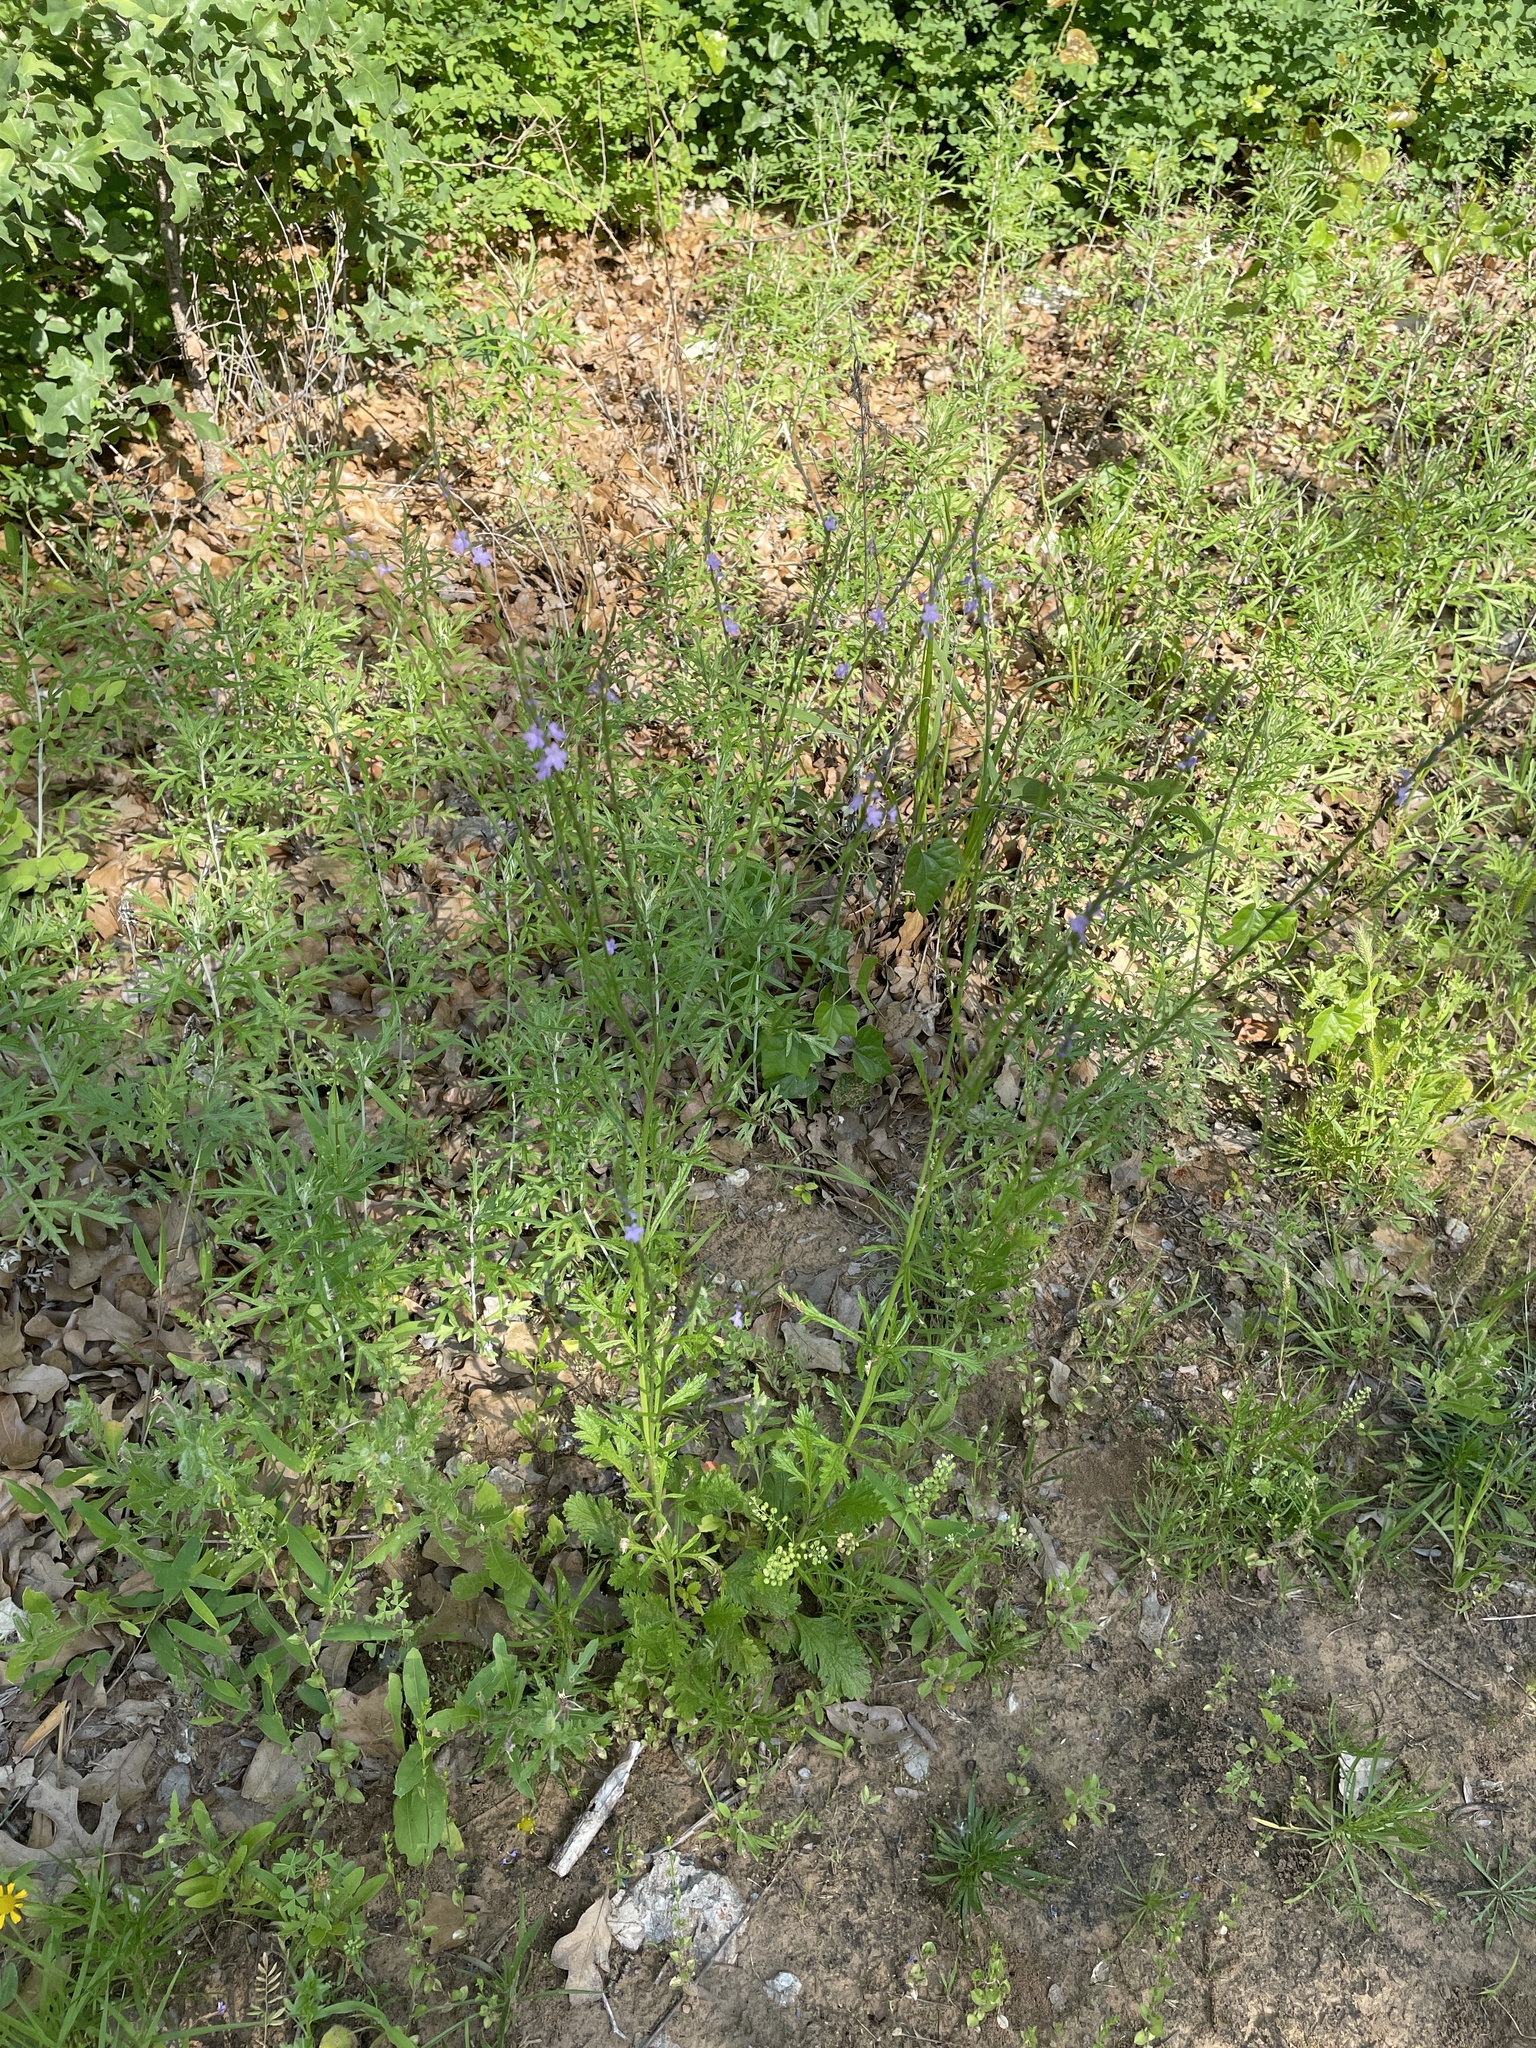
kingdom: Plantae
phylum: Tracheophyta
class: Magnoliopsida
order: Lamiales
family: Verbenaceae
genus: Verbena
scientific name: Verbena halei
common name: Texas vervain
